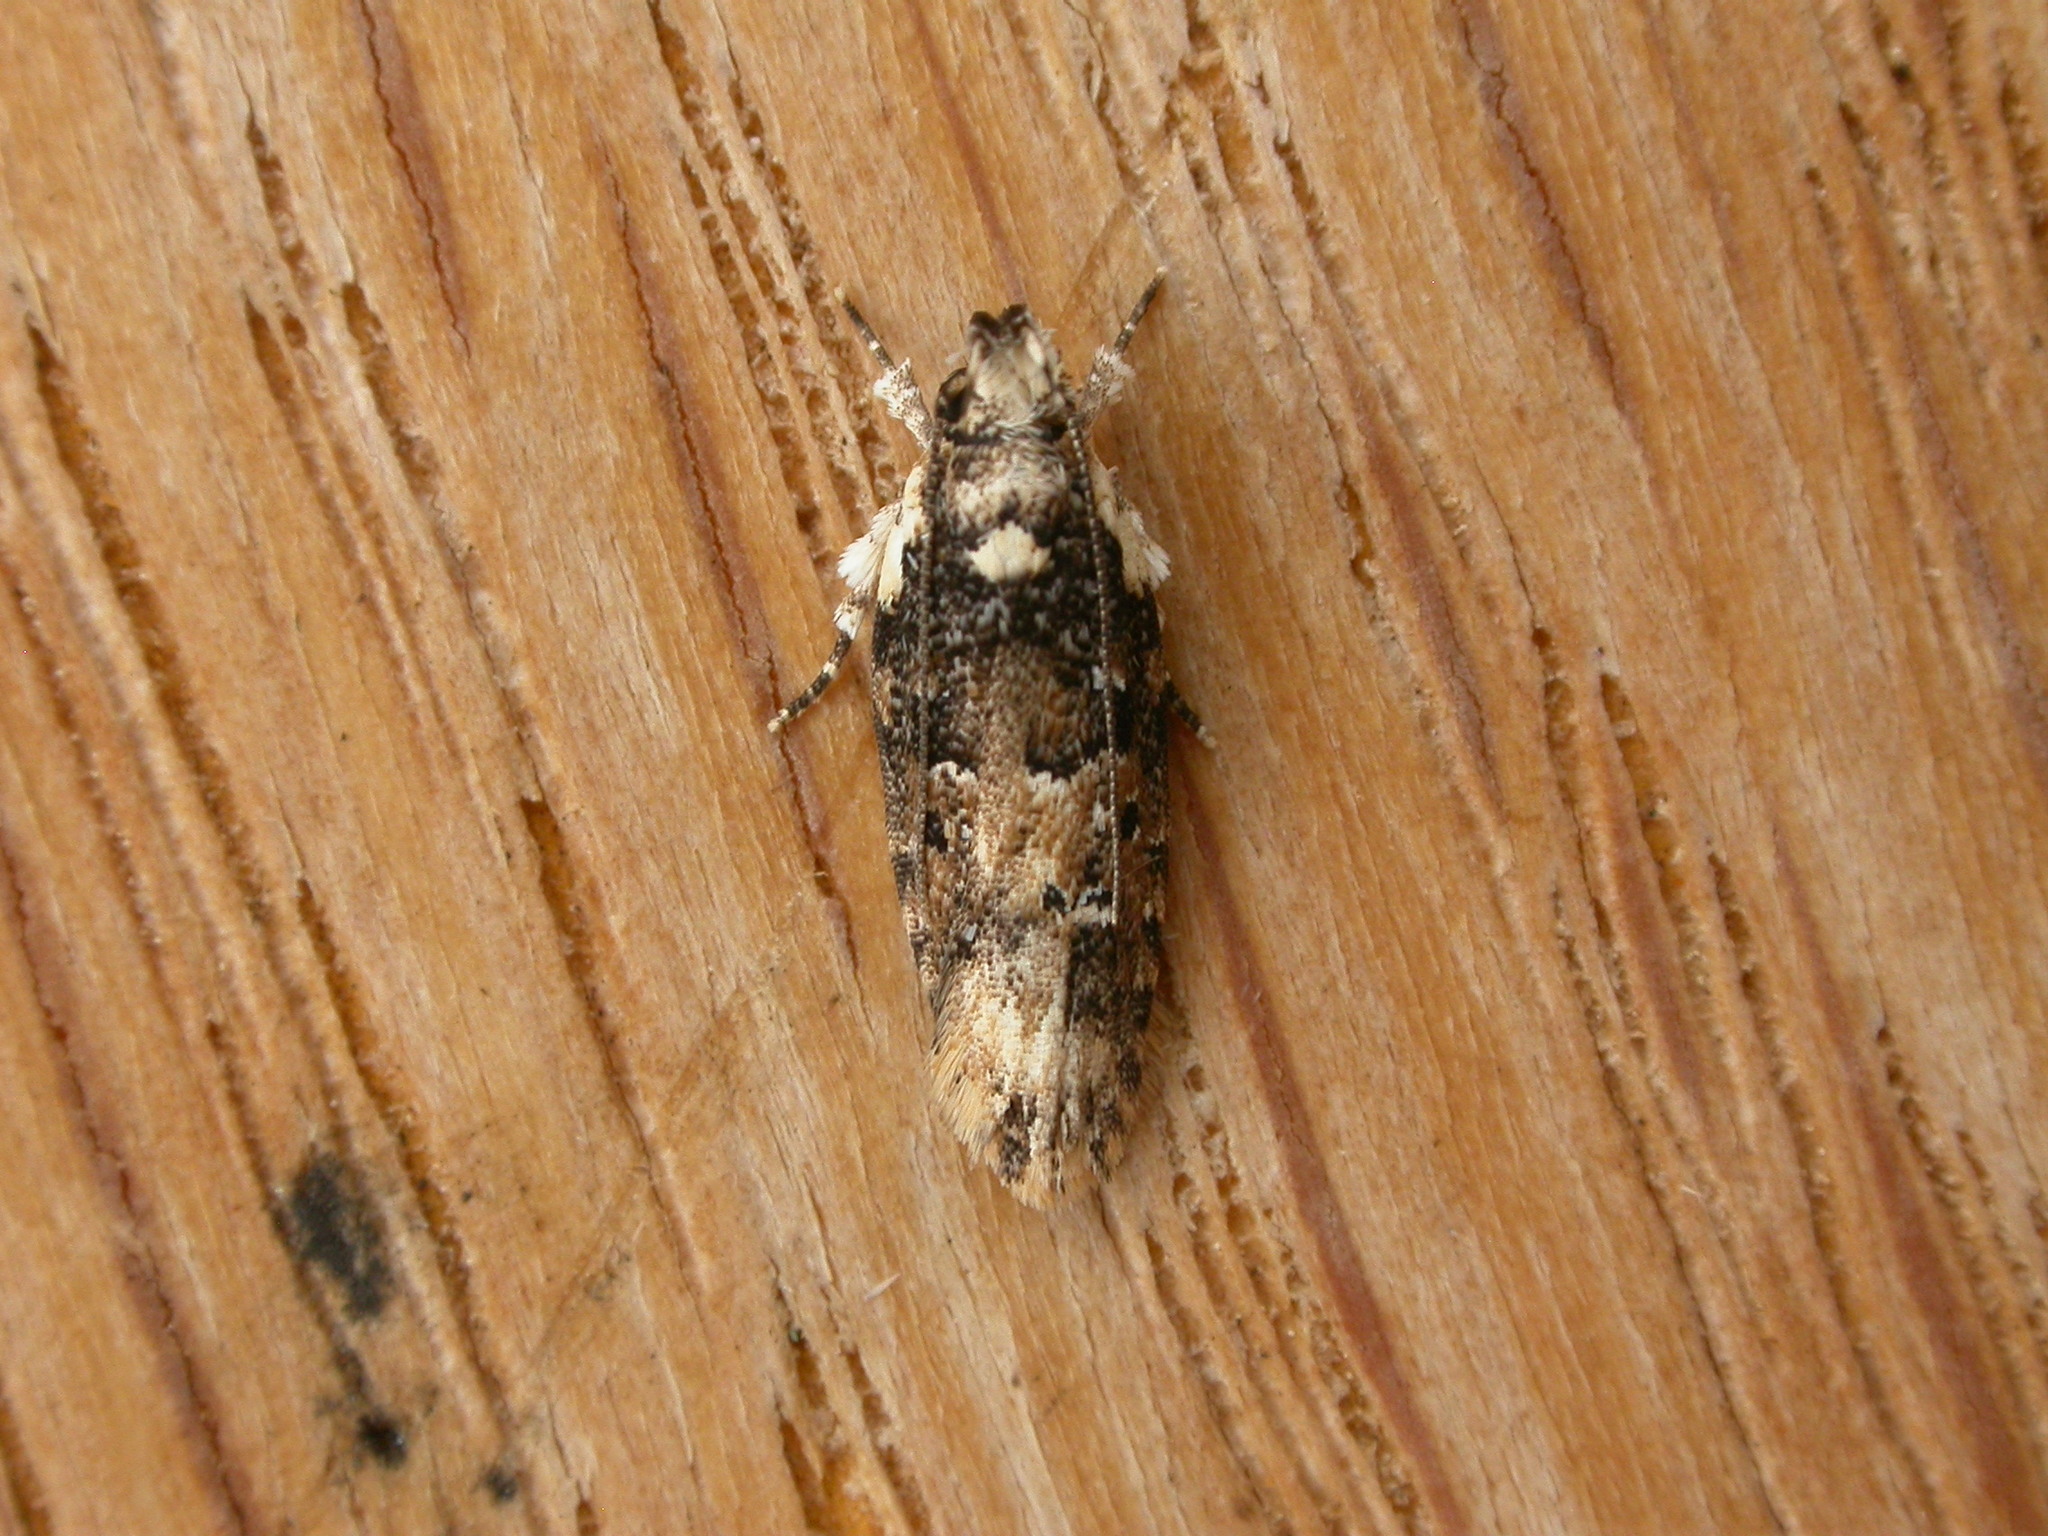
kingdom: Animalia
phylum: Arthropoda
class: Insecta
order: Lepidoptera
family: Gelechiidae
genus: Ardozyga
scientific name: Ardozyga sodalisella
